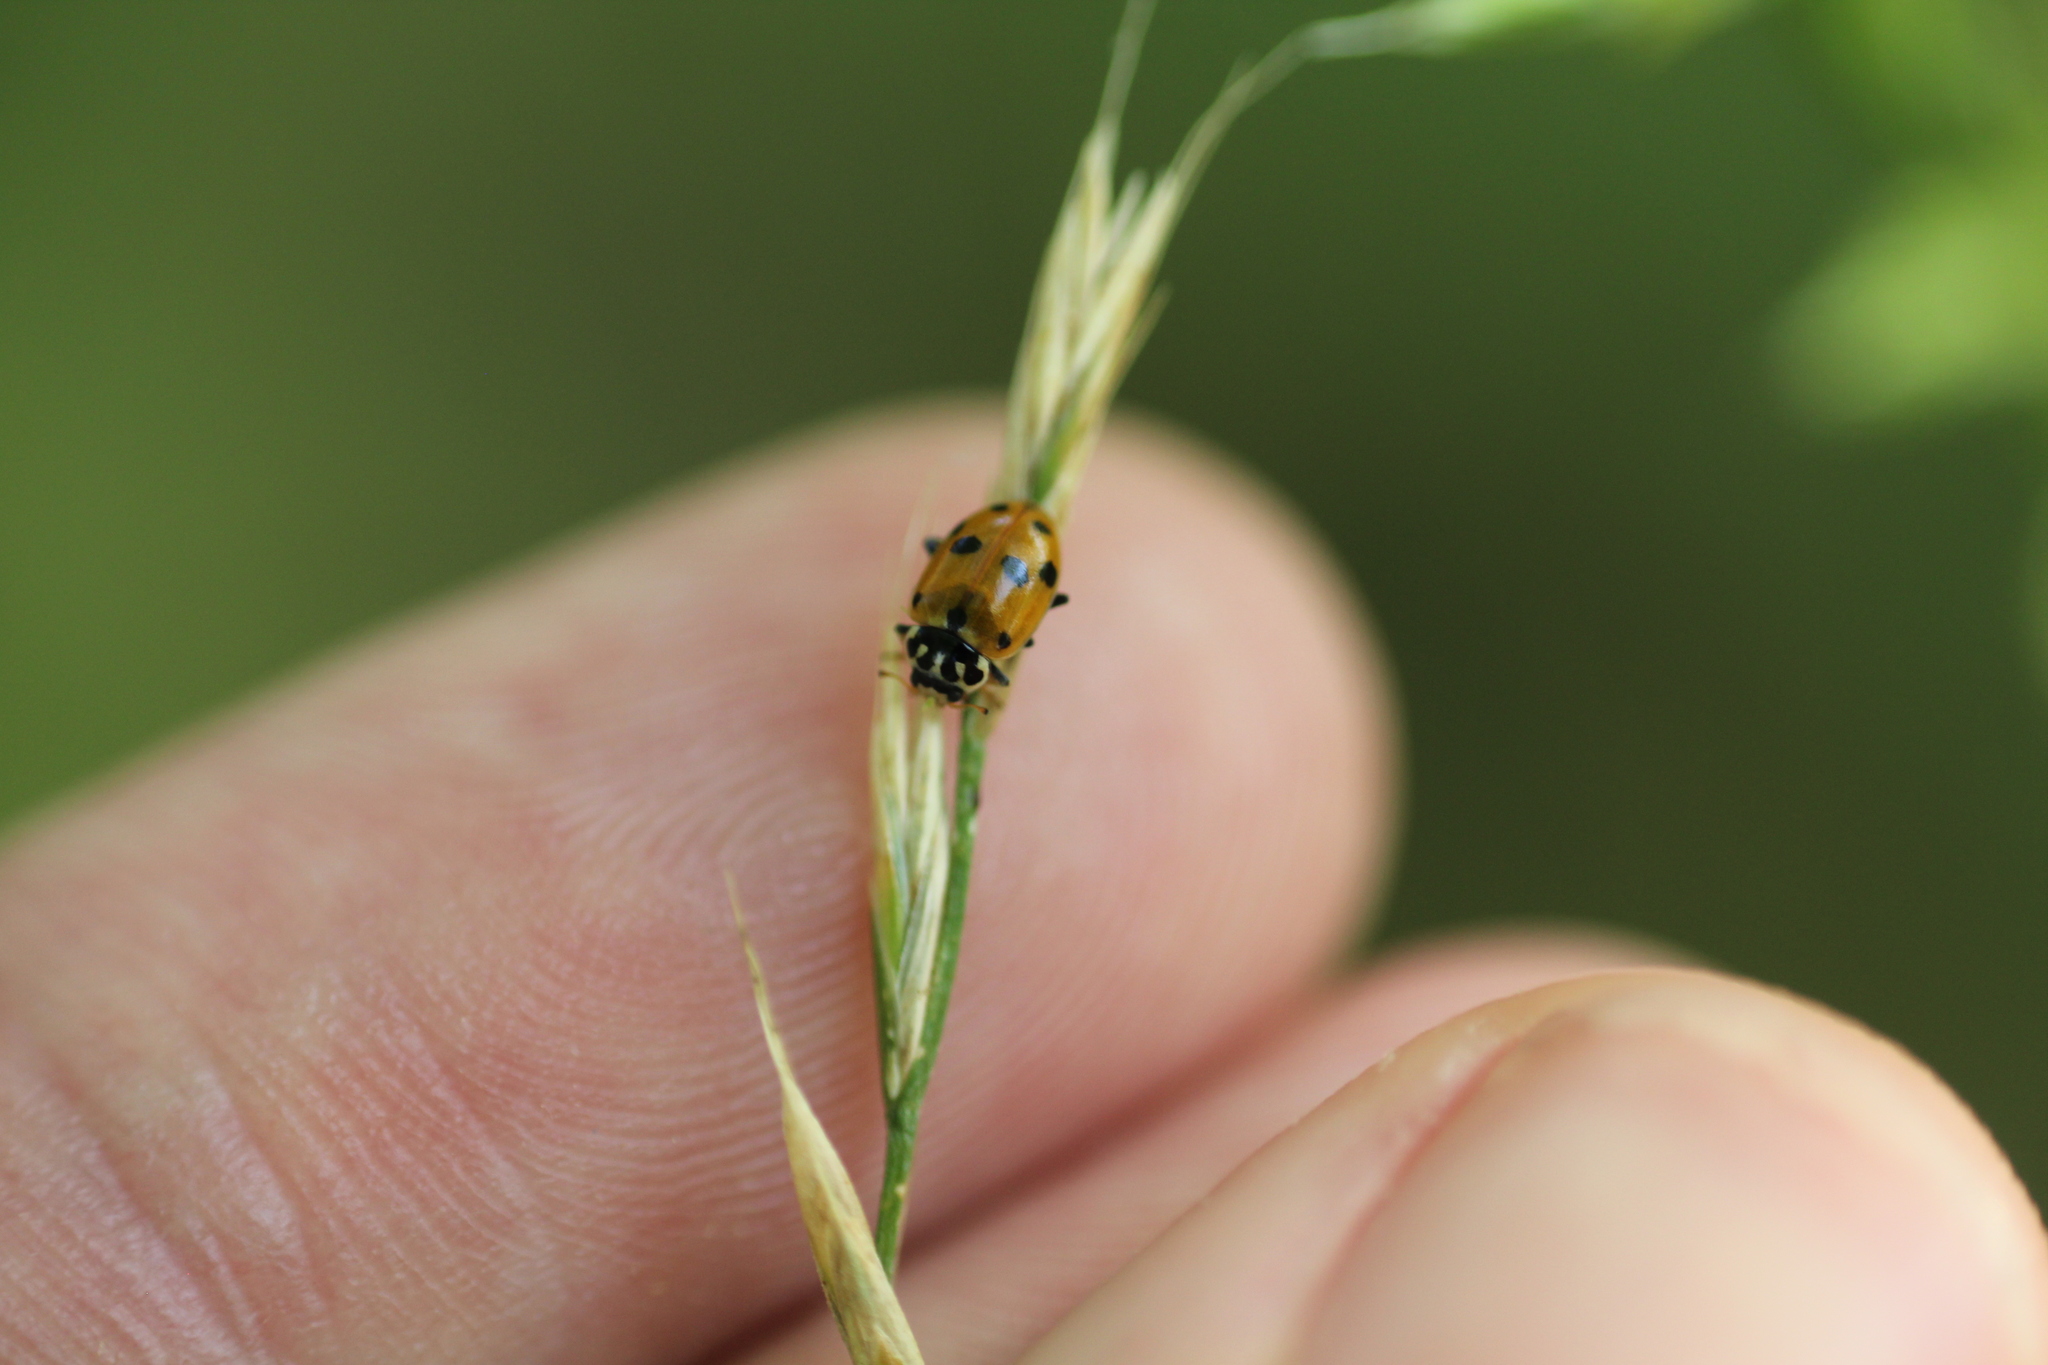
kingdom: Animalia
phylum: Arthropoda
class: Insecta
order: Coleoptera
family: Coccinellidae
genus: Hippodamia
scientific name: Hippodamia variegata
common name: Ladybird beetle
